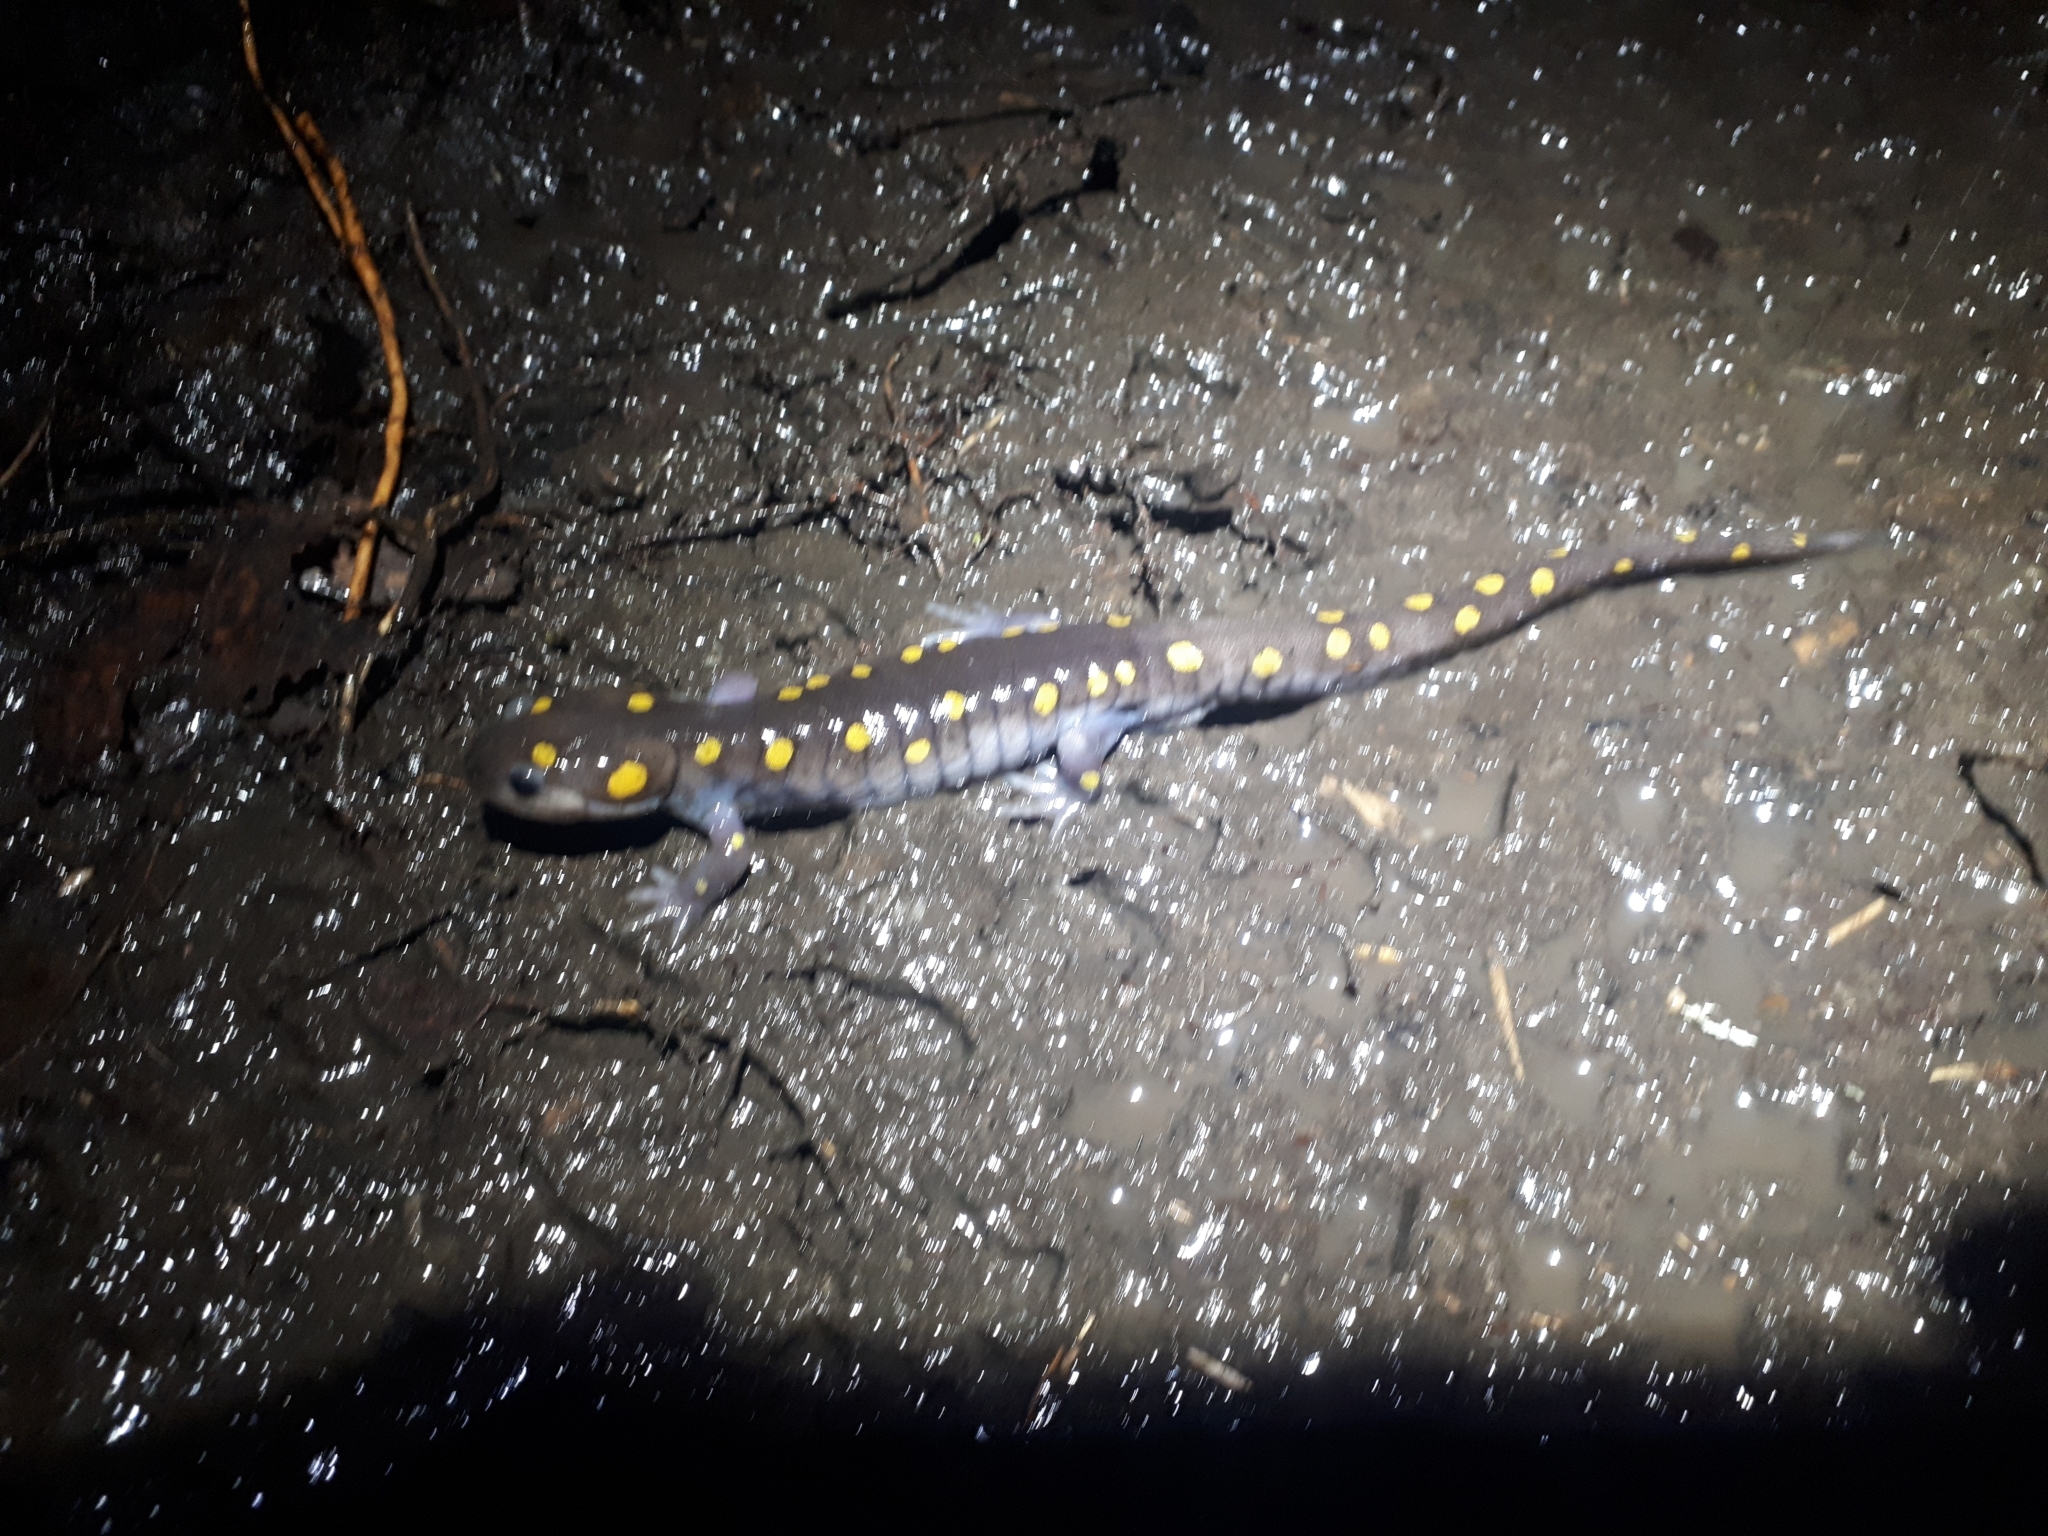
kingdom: Animalia
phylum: Chordata
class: Amphibia
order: Caudata
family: Ambystomatidae
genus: Ambystoma
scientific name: Ambystoma maculatum
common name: Spotted salamander
